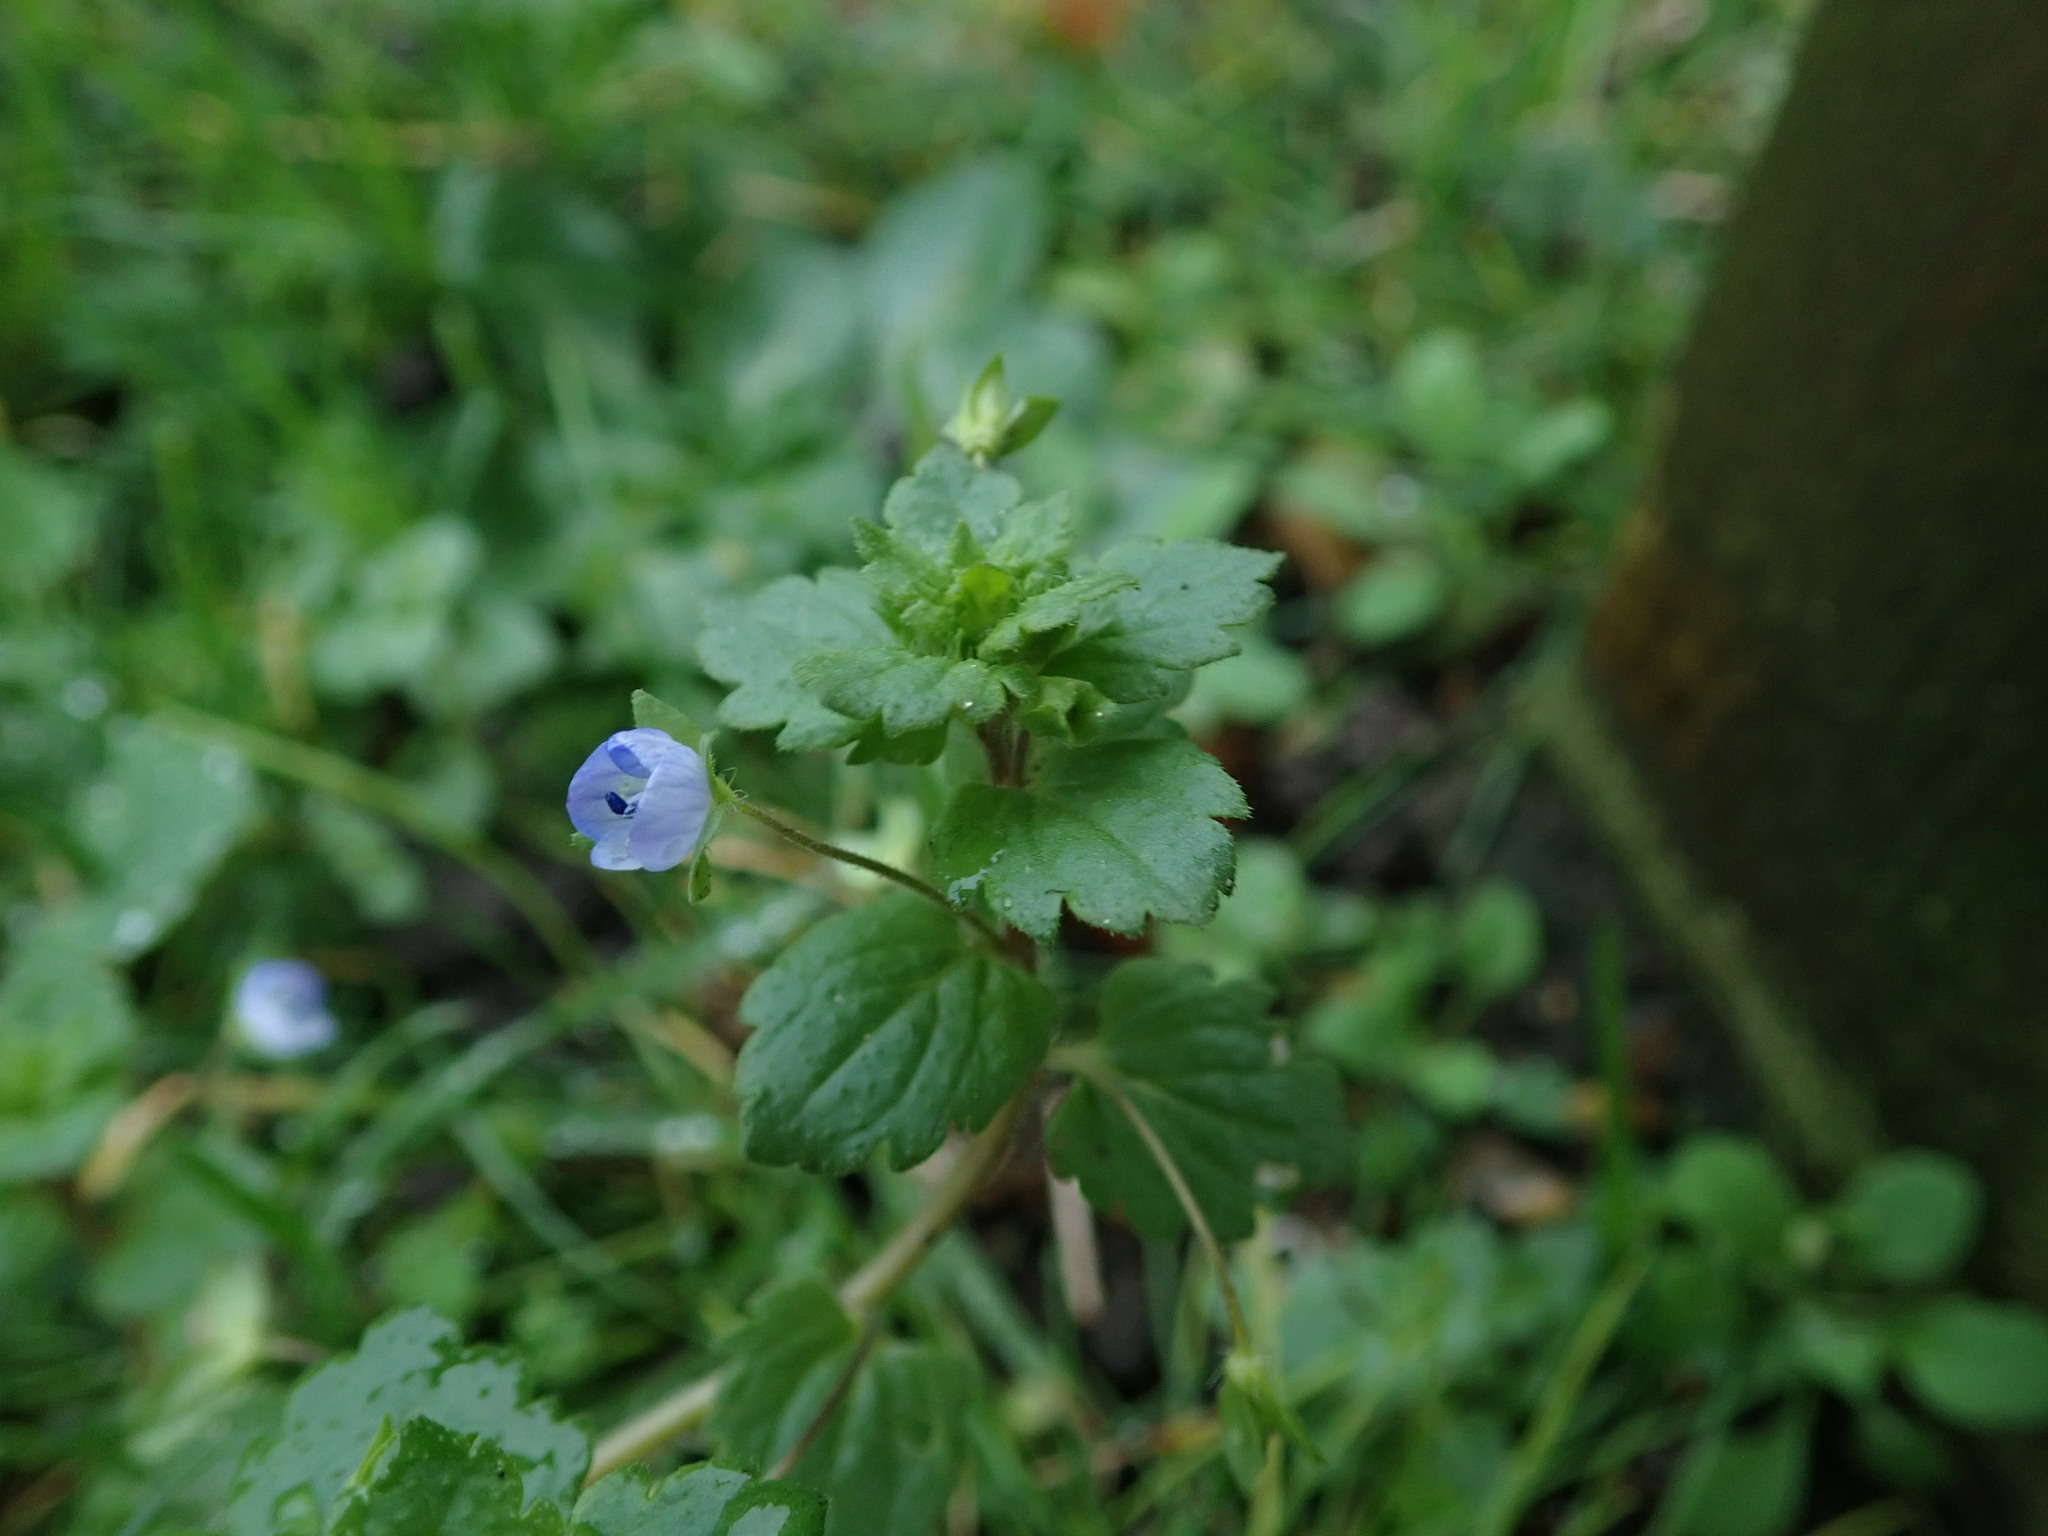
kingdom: Plantae
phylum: Tracheophyta
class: Magnoliopsida
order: Lamiales
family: Plantaginaceae
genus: Veronica
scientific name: Veronica persica
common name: Common field-speedwell
